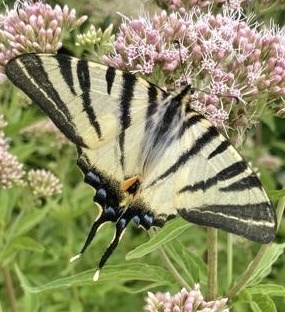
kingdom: Animalia
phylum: Arthropoda
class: Insecta
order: Lepidoptera
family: Papilionidae
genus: Iphiclides
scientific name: Iphiclides podalirius
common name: Scarce swallowtail
